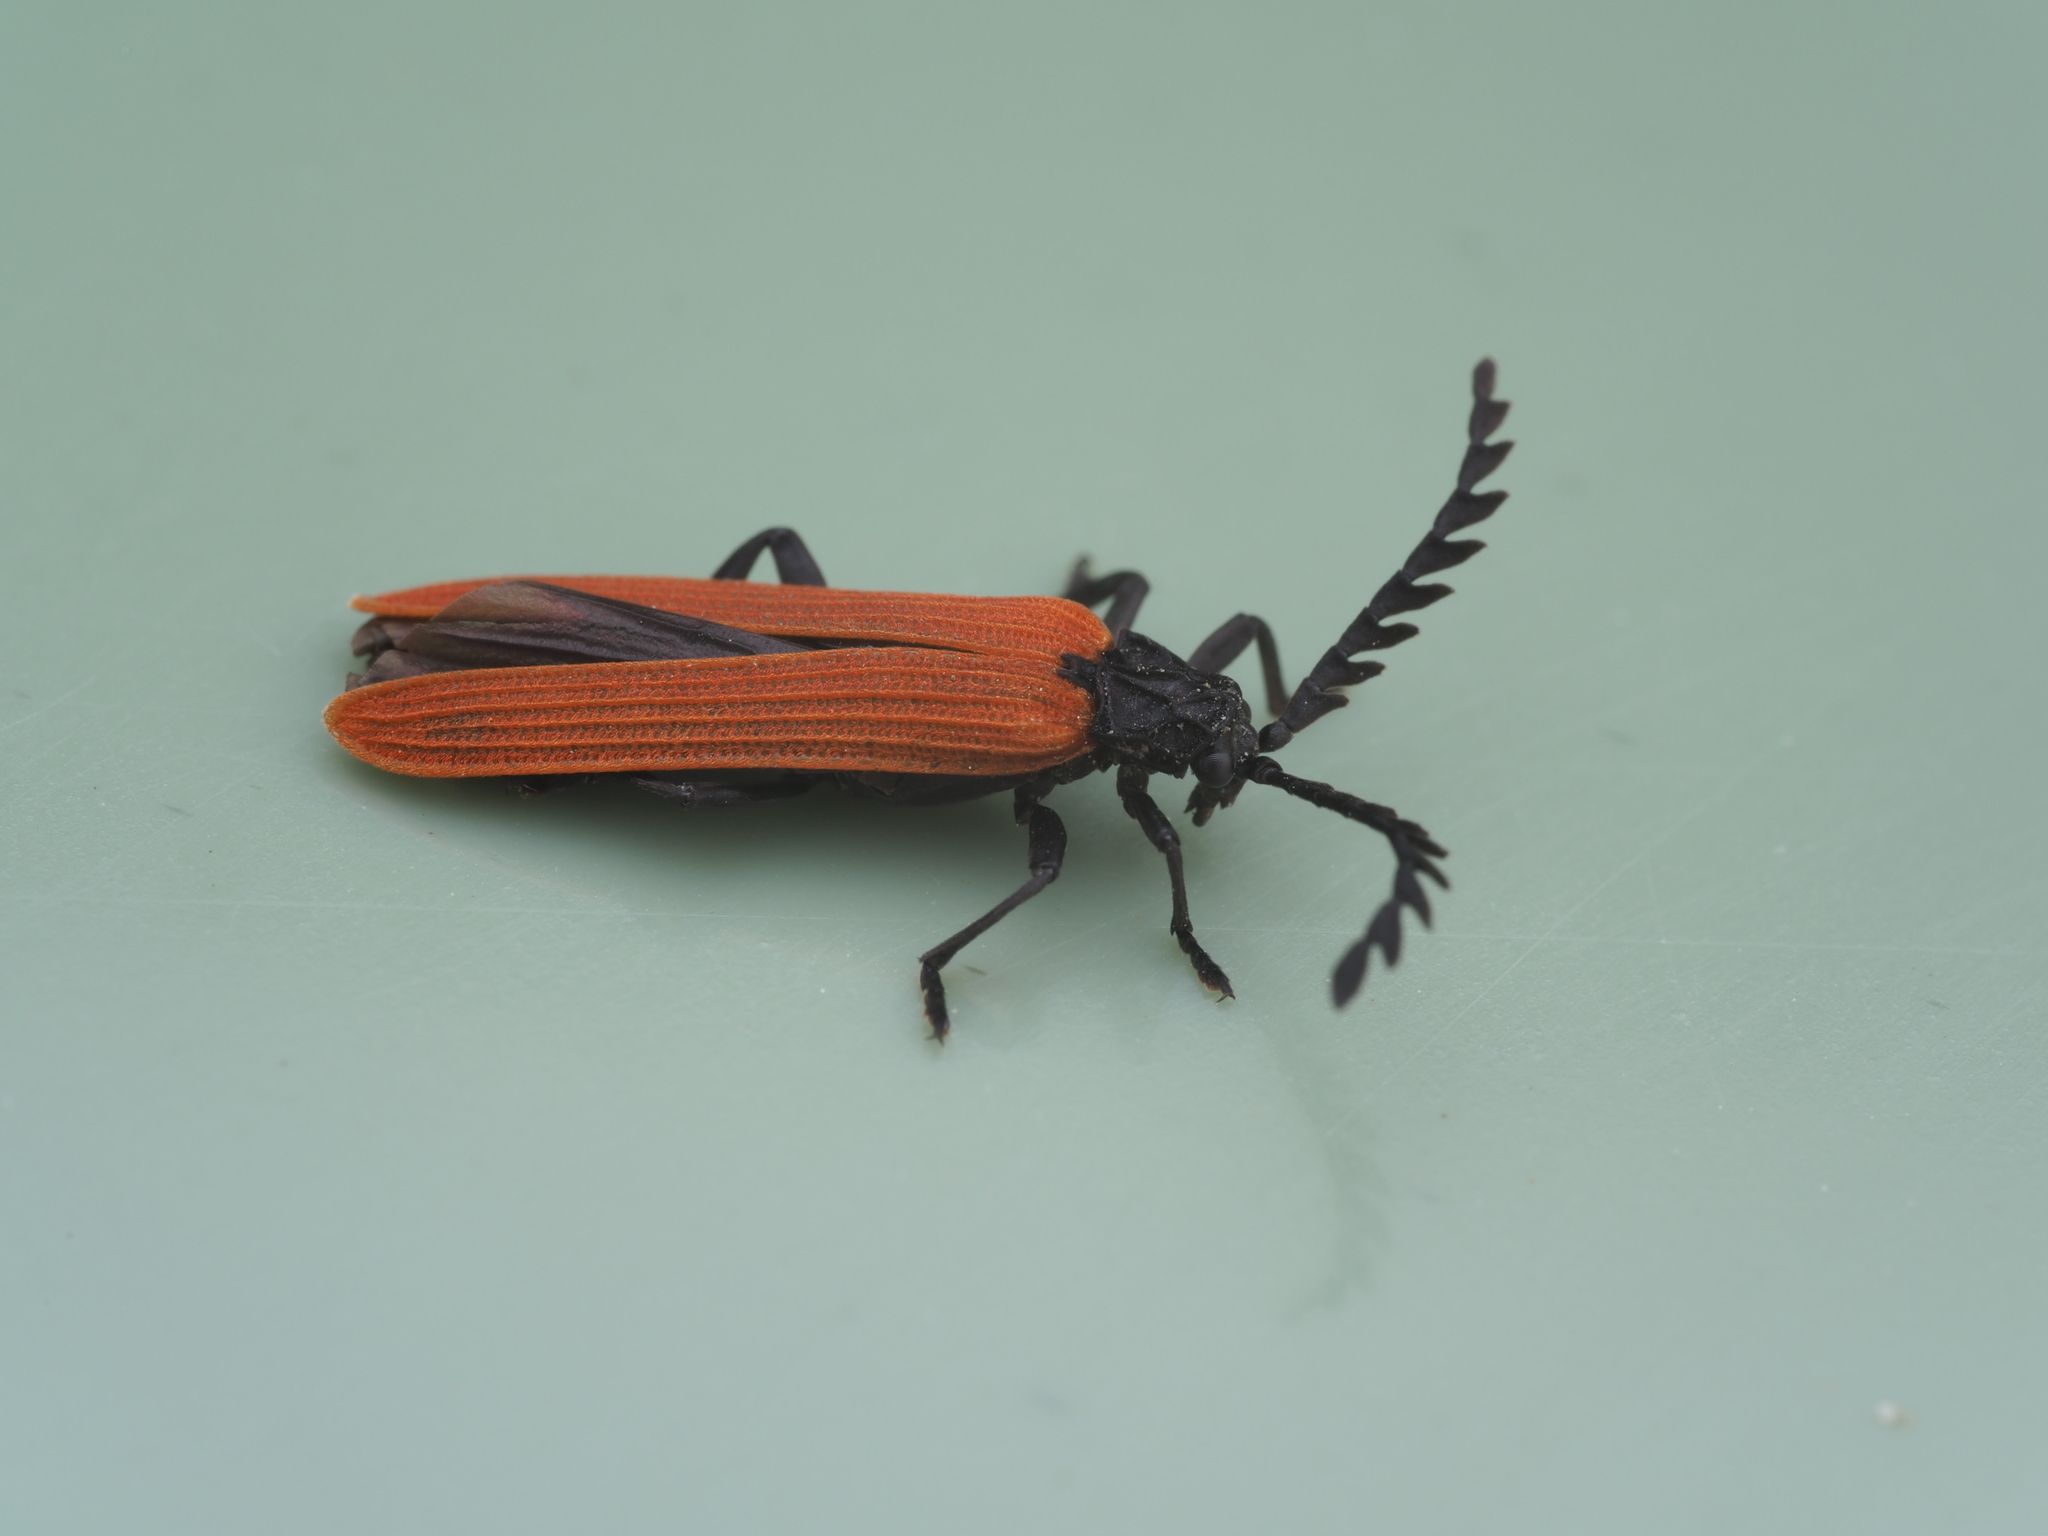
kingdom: Animalia
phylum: Arthropoda
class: Insecta
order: Coleoptera
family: Lycidae
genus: Porrostoma
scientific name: Porrostoma rufipenne
